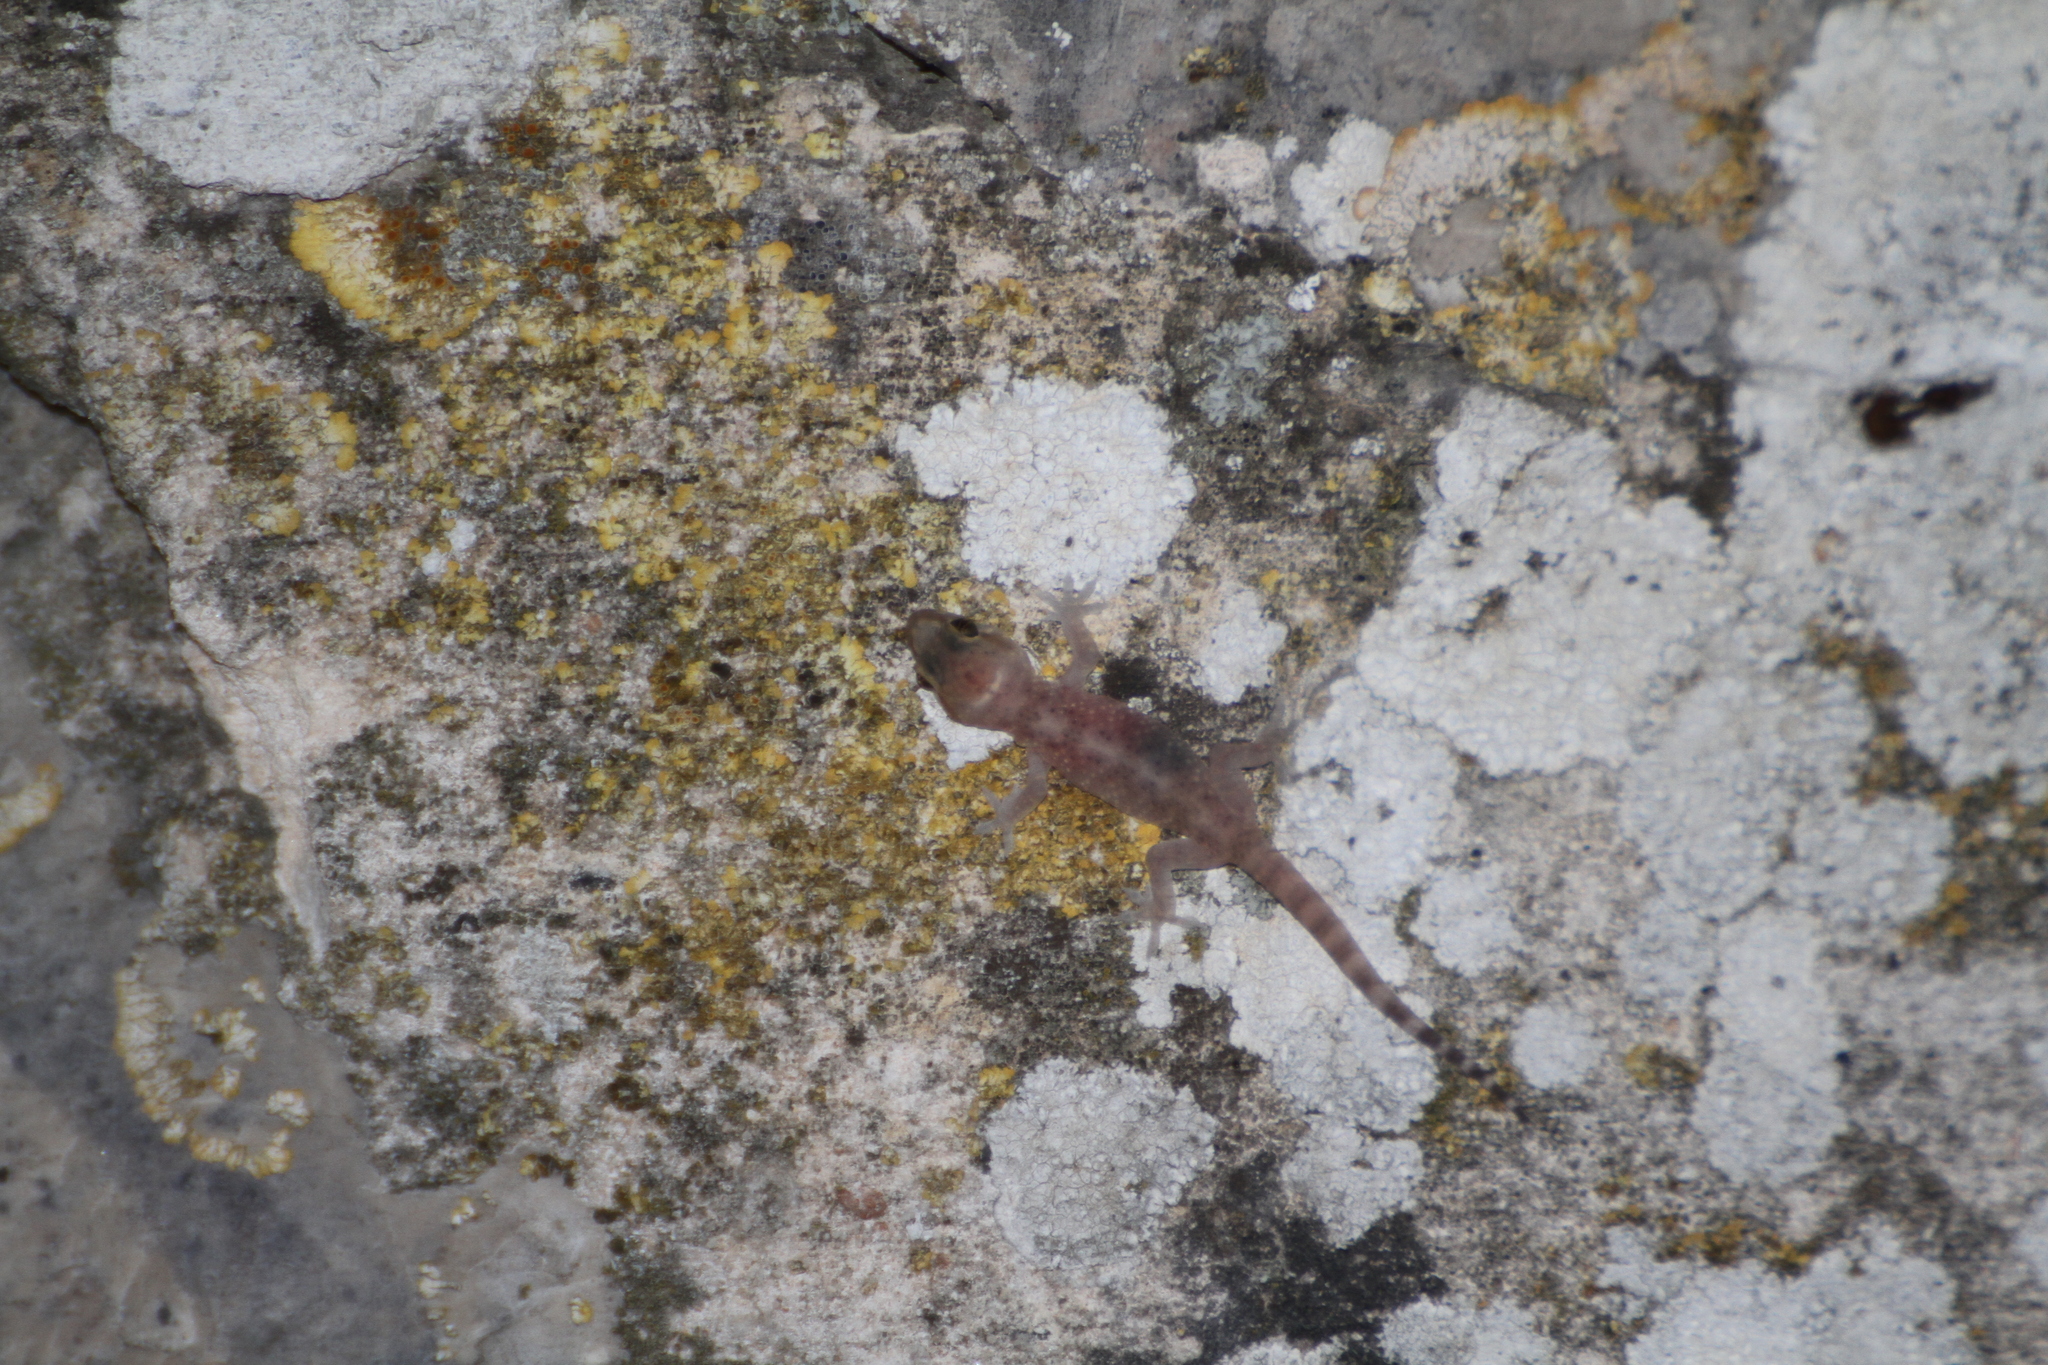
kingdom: Animalia
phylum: Chordata
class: Squamata
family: Gekkonidae
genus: Hemidactylus
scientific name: Hemidactylus turcicus
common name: Turkish gecko
